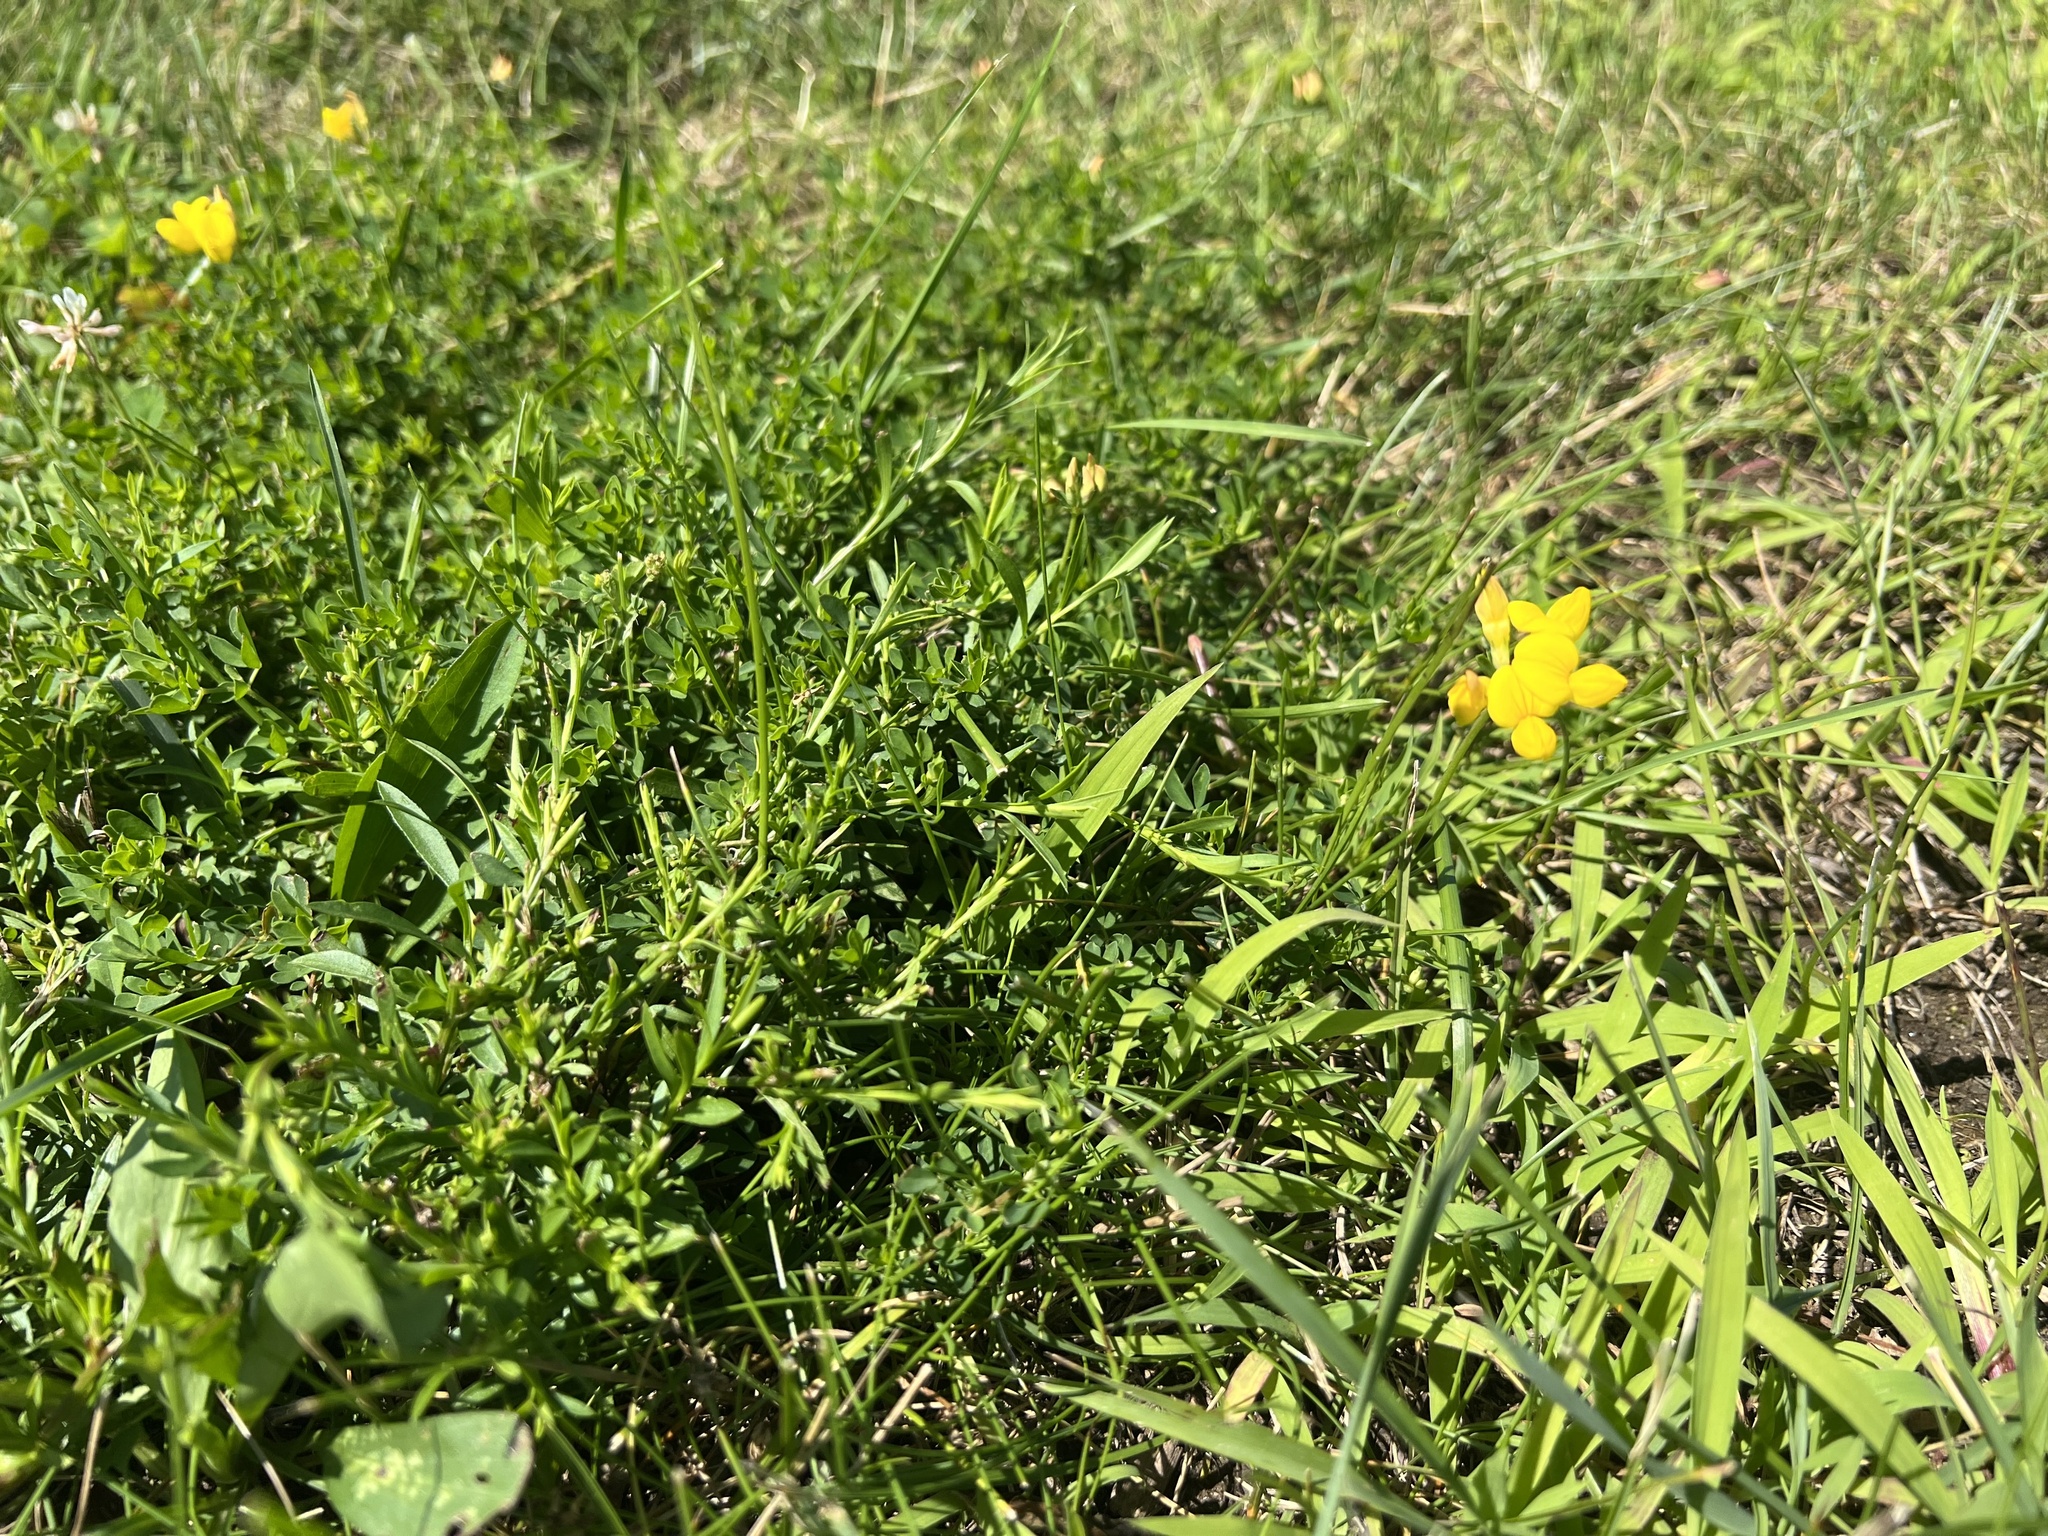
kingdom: Plantae
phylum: Tracheophyta
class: Magnoliopsida
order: Fabales
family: Fabaceae
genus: Lotus
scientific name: Lotus corniculatus
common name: Common bird's-foot-trefoil
